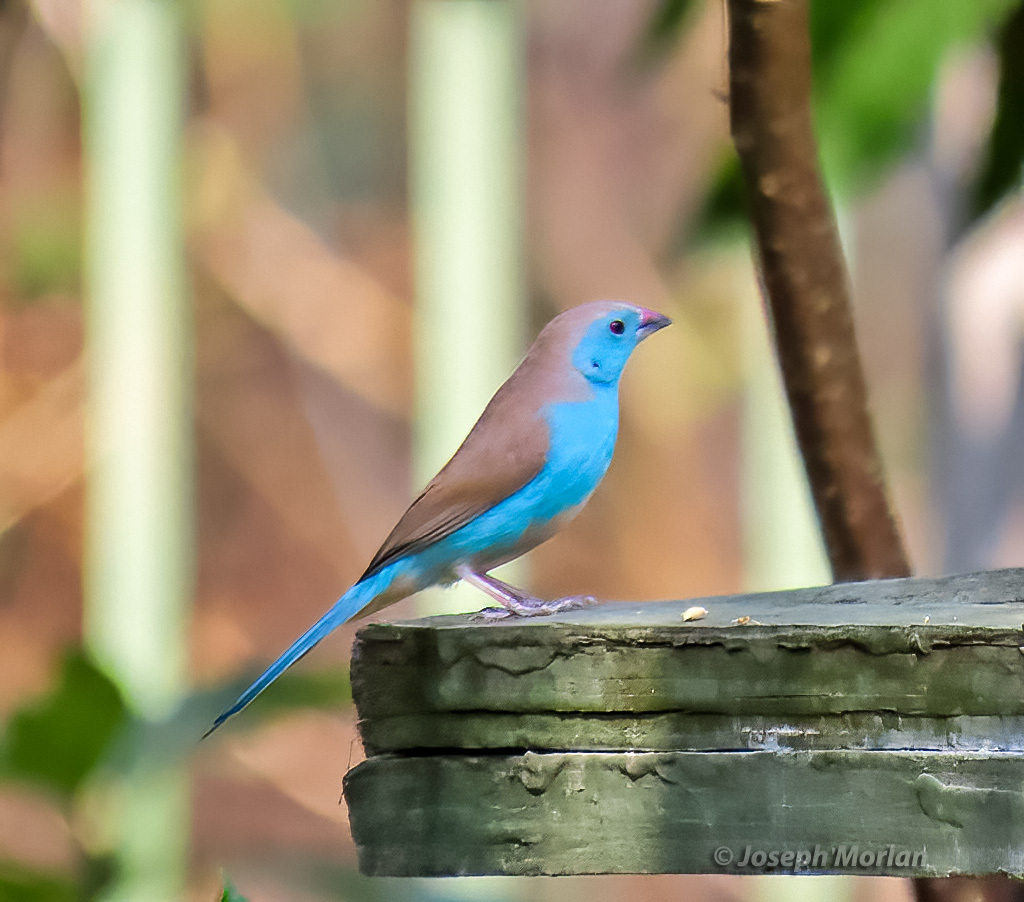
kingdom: Animalia
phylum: Chordata
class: Aves
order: Passeriformes
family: Estrildidae
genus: Uraeginthus
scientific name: Uraeginthus angolensis
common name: Blue waxbill
